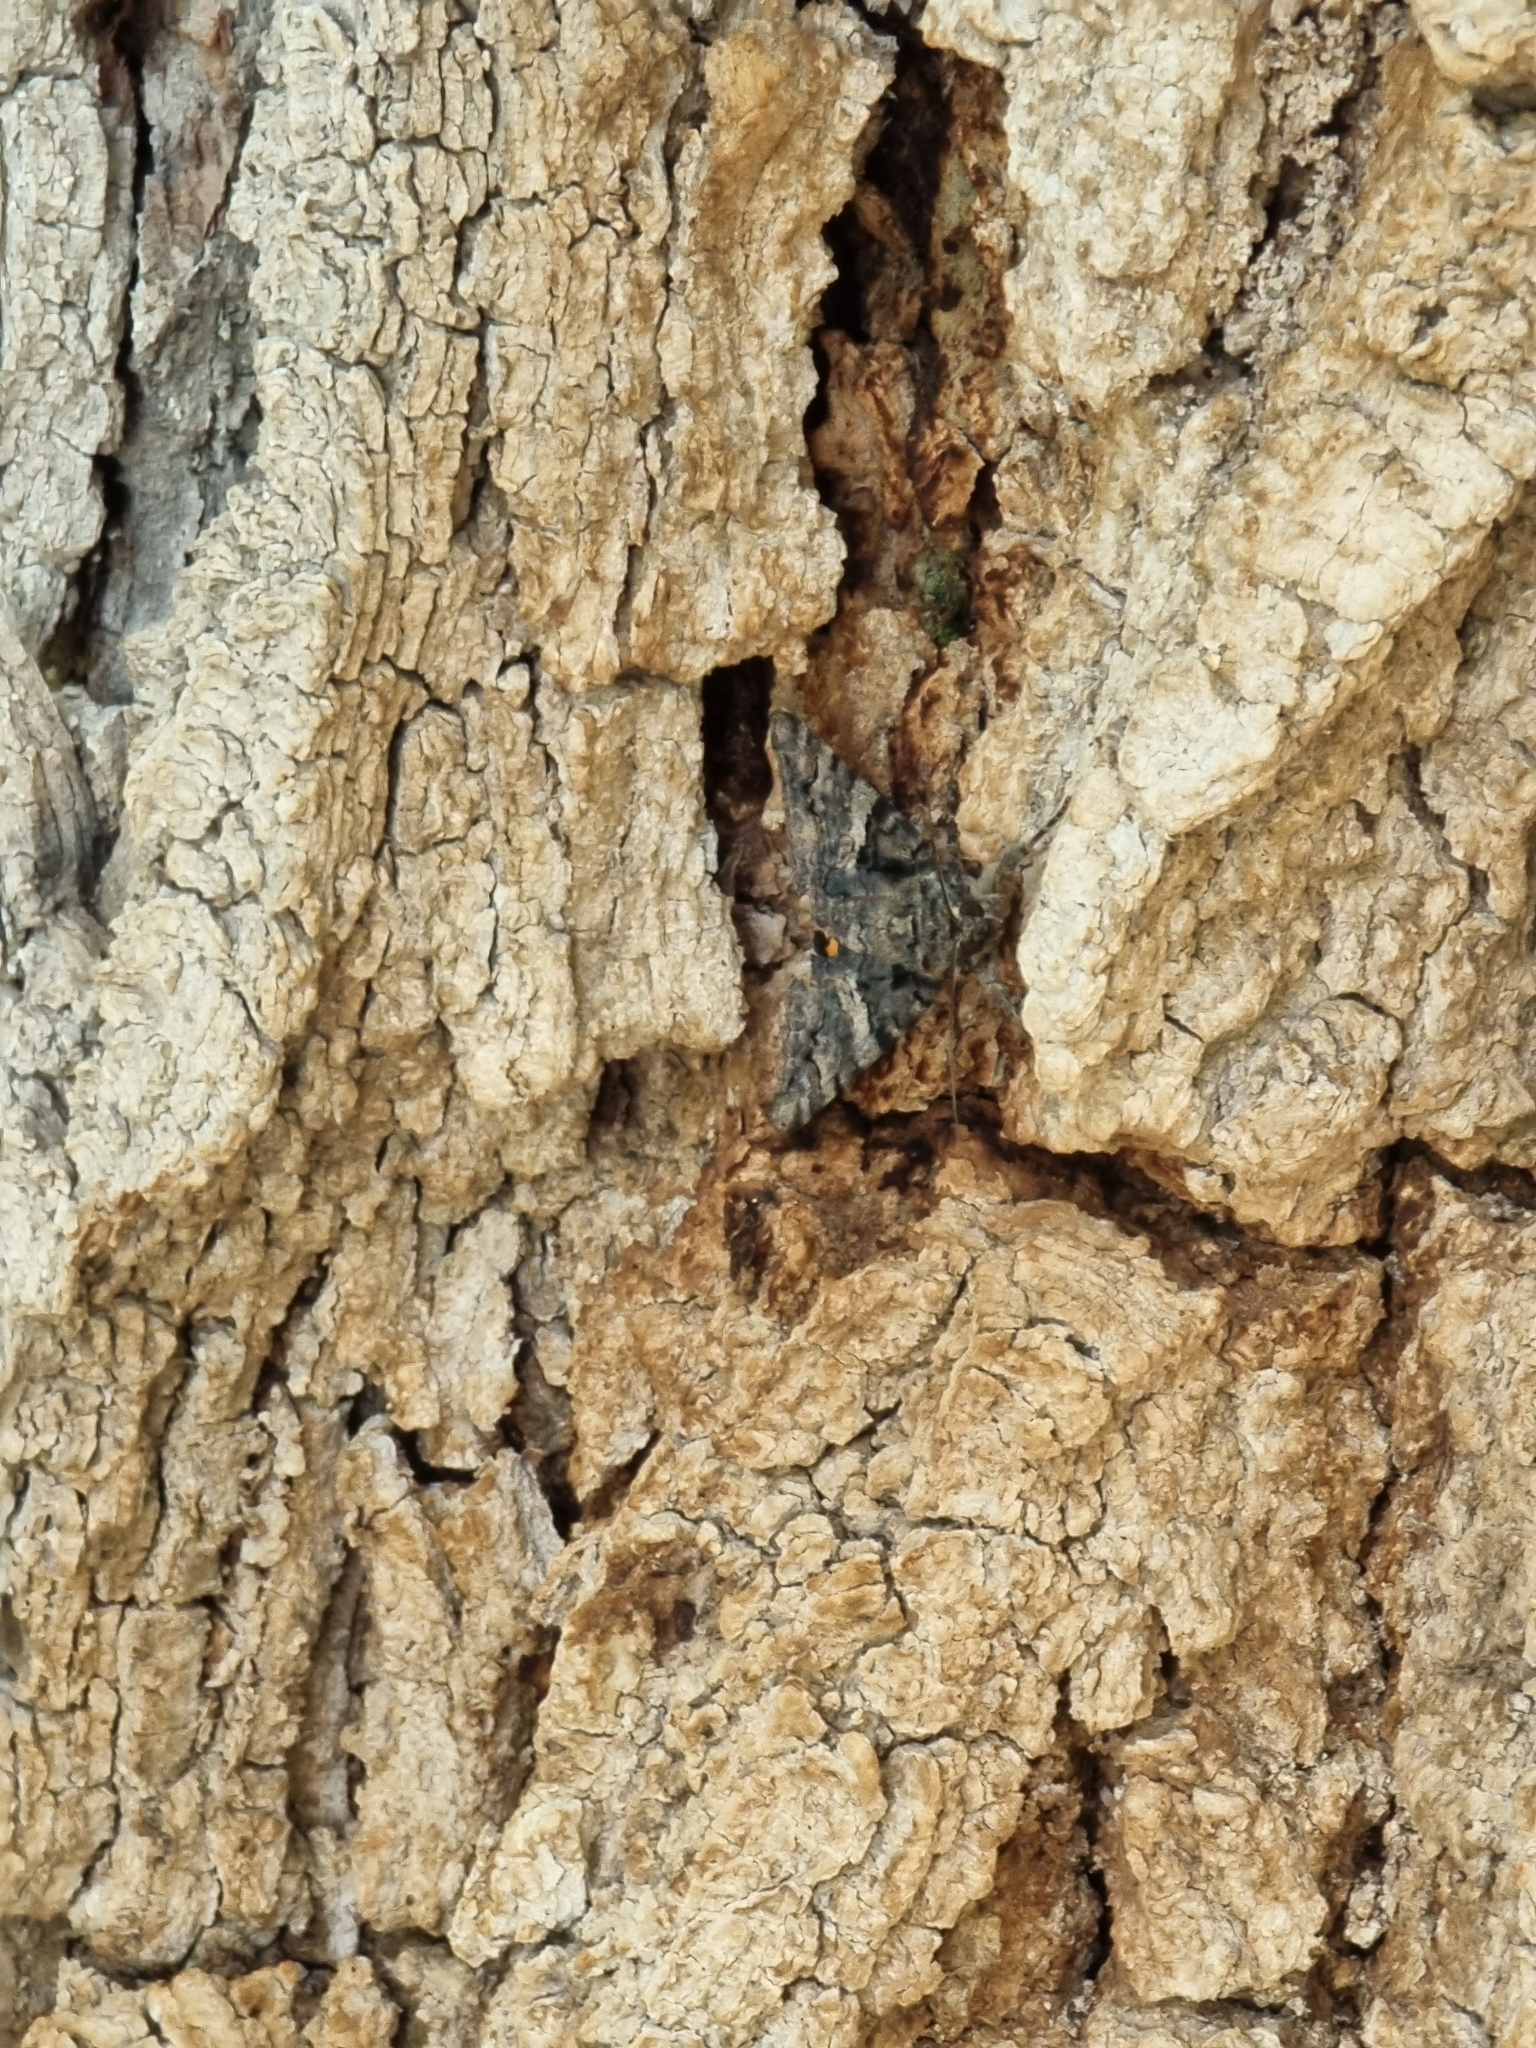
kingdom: Animalia
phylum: Arthropoda
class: Insecta
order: Lepidoptera
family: Erebidae
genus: Catocala
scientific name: Catocala helena
